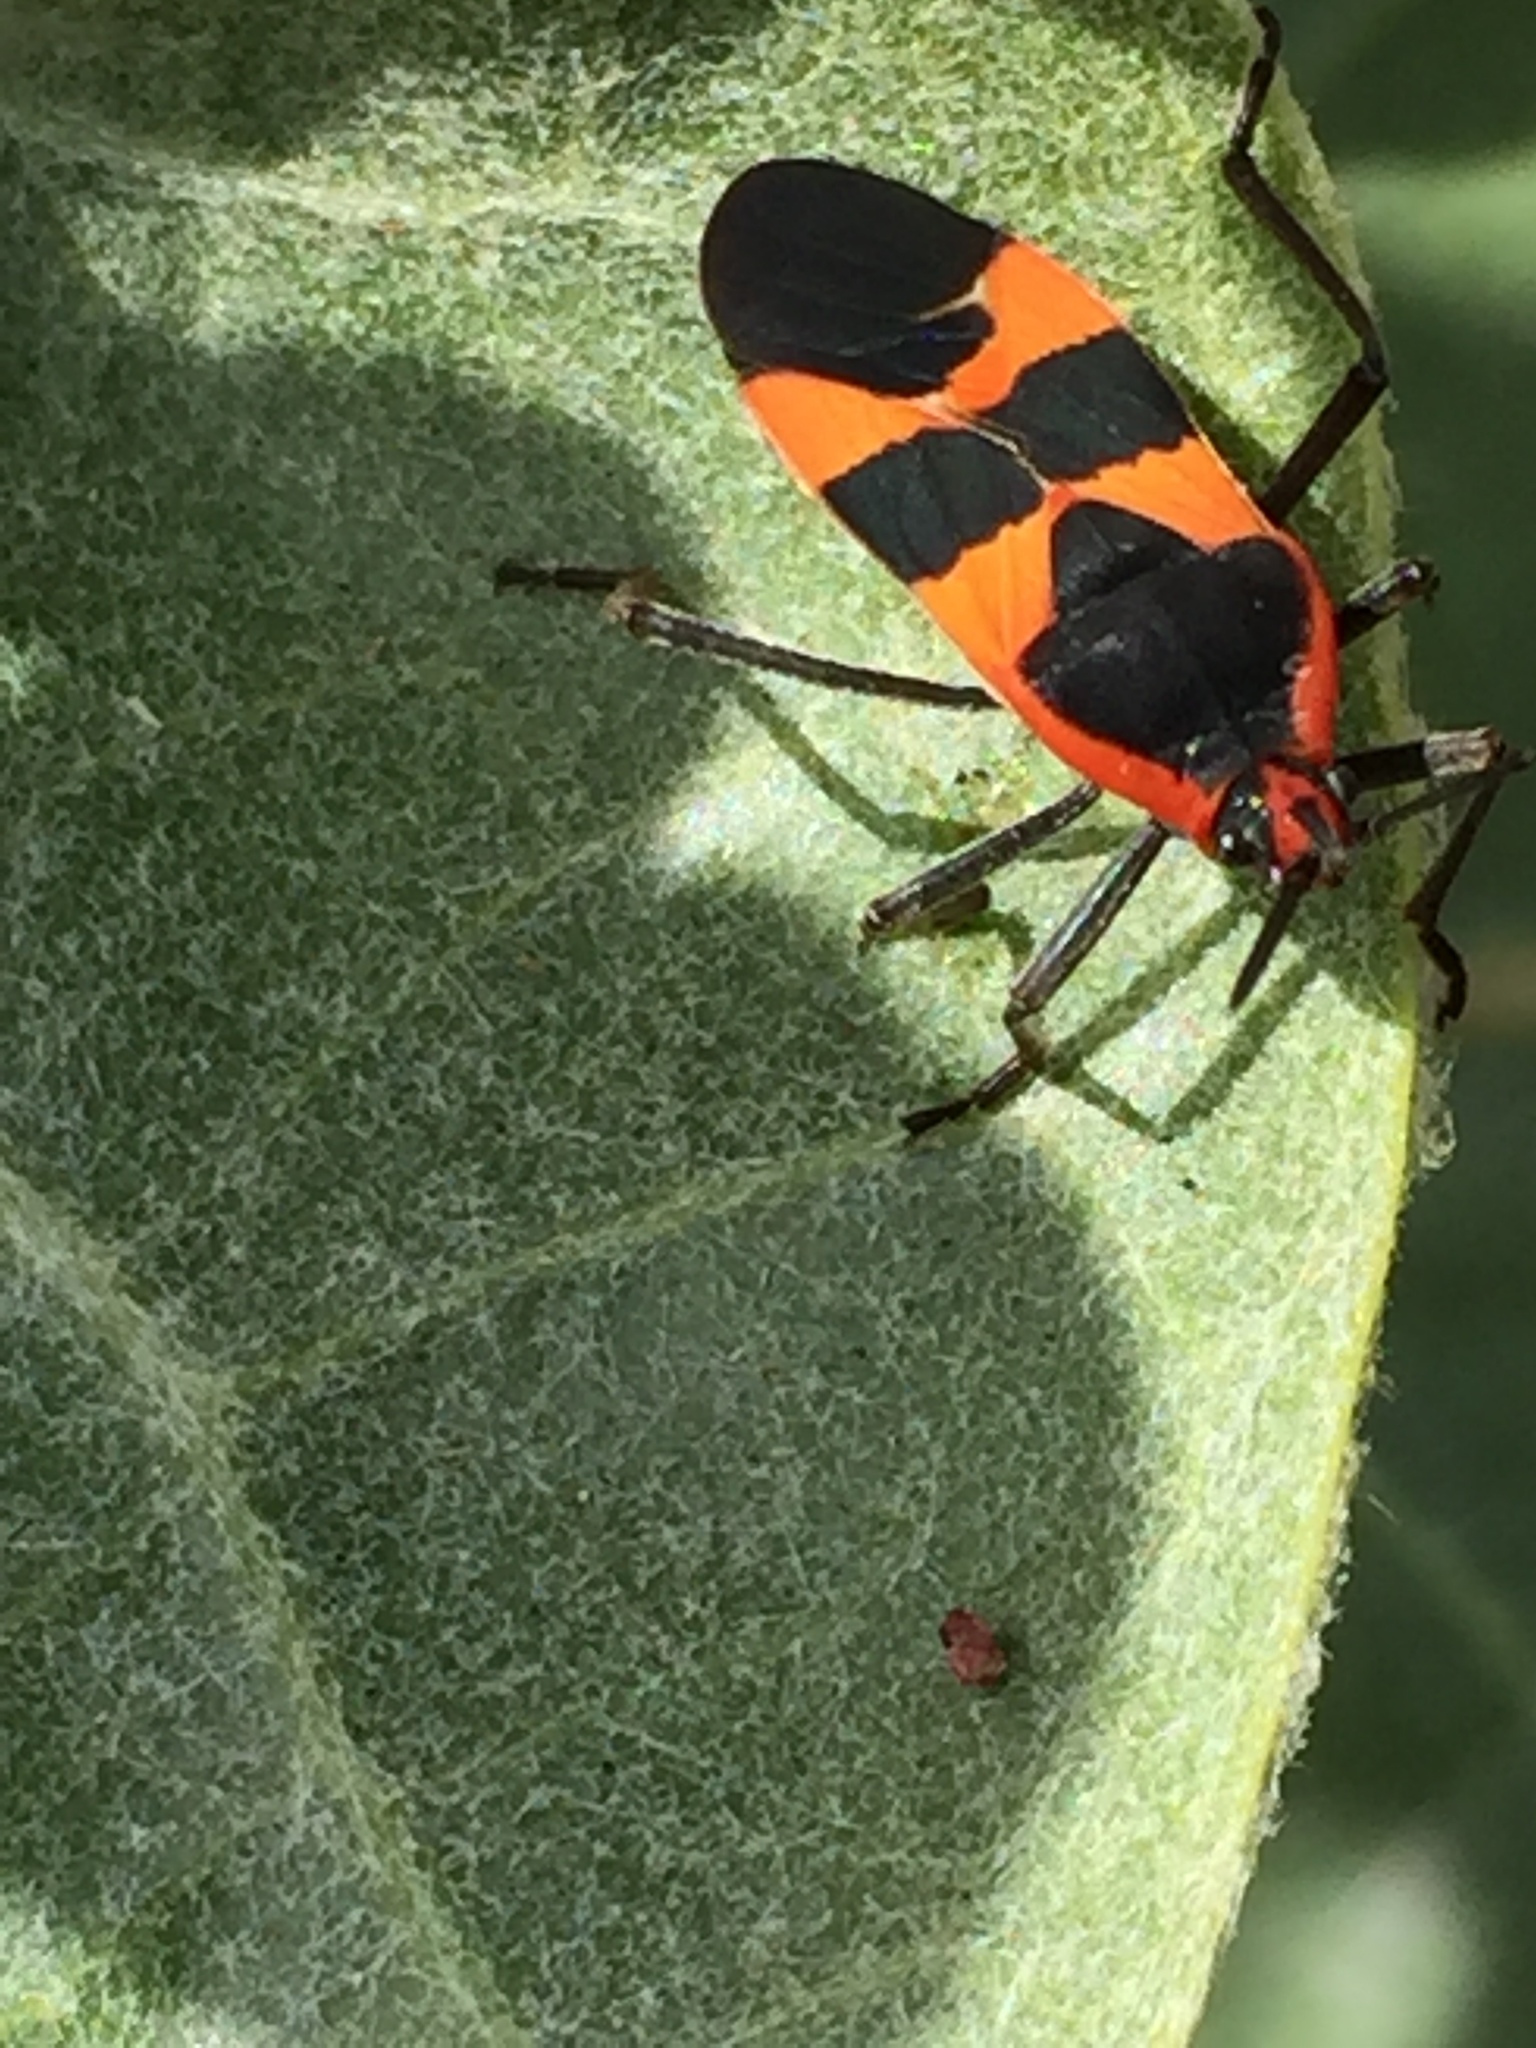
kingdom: Animalia
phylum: Arthropoda
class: Insecta
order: Hemiptera
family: Lygaeidae
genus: Oncopeltus
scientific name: Oncopeltus fasciatus
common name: Large milkweed bug
